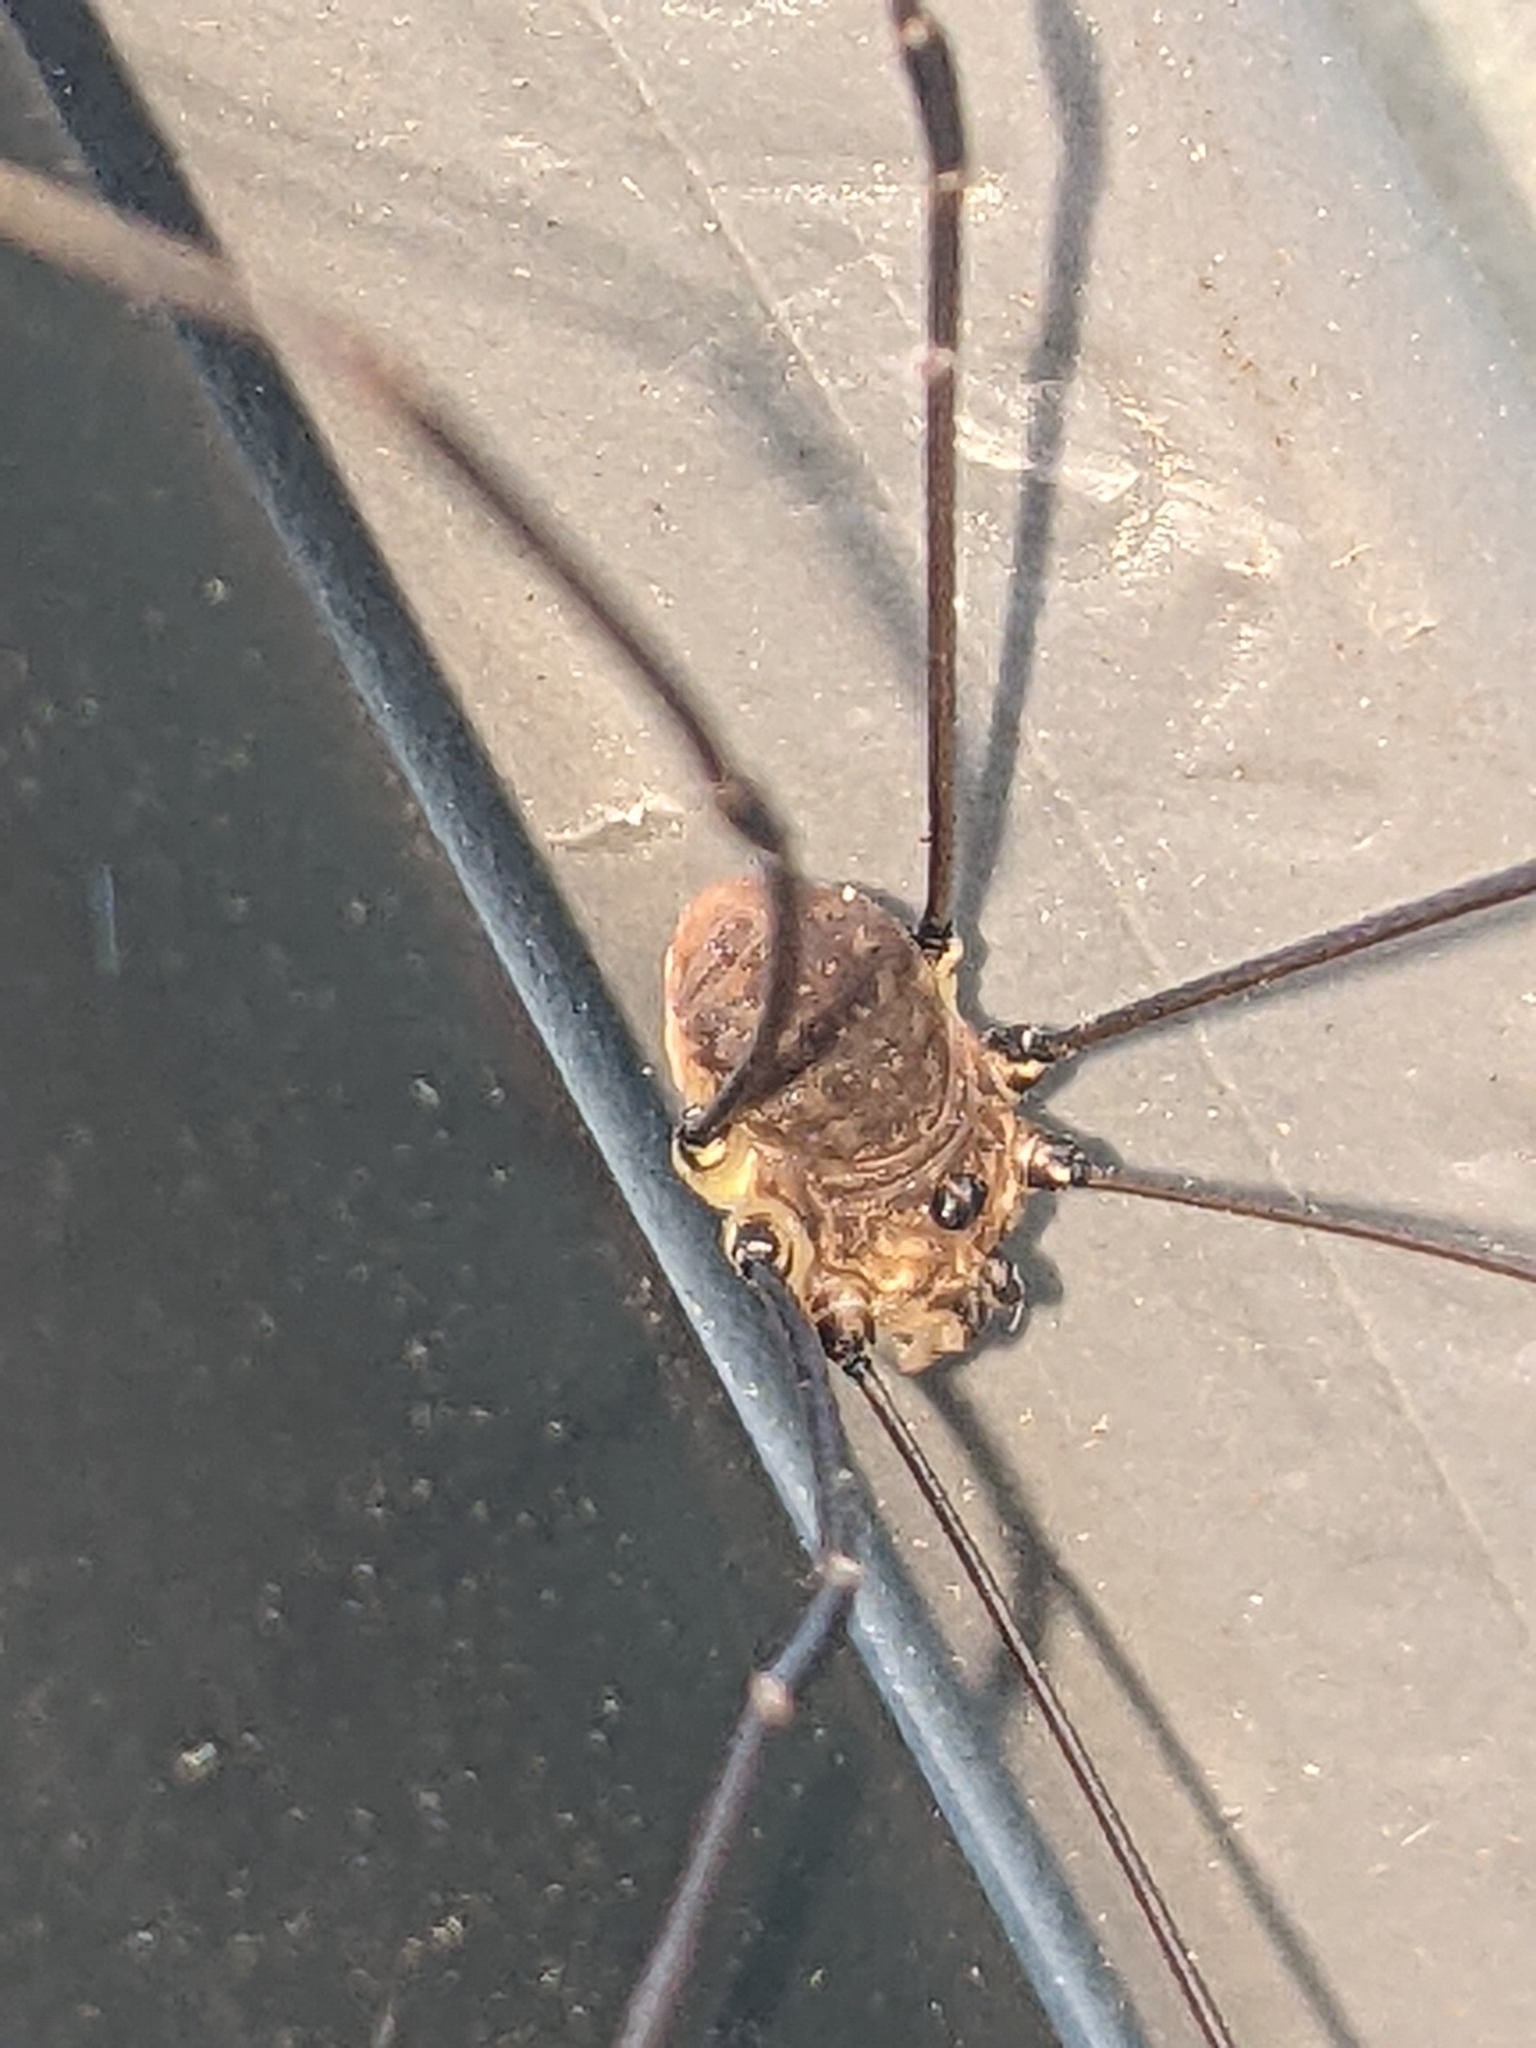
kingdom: Animalia
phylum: Arthropoda
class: Arachnida
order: Opiliones
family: Sclerosomatidae
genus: Leiobunum
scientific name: Leiobunum rotundum
